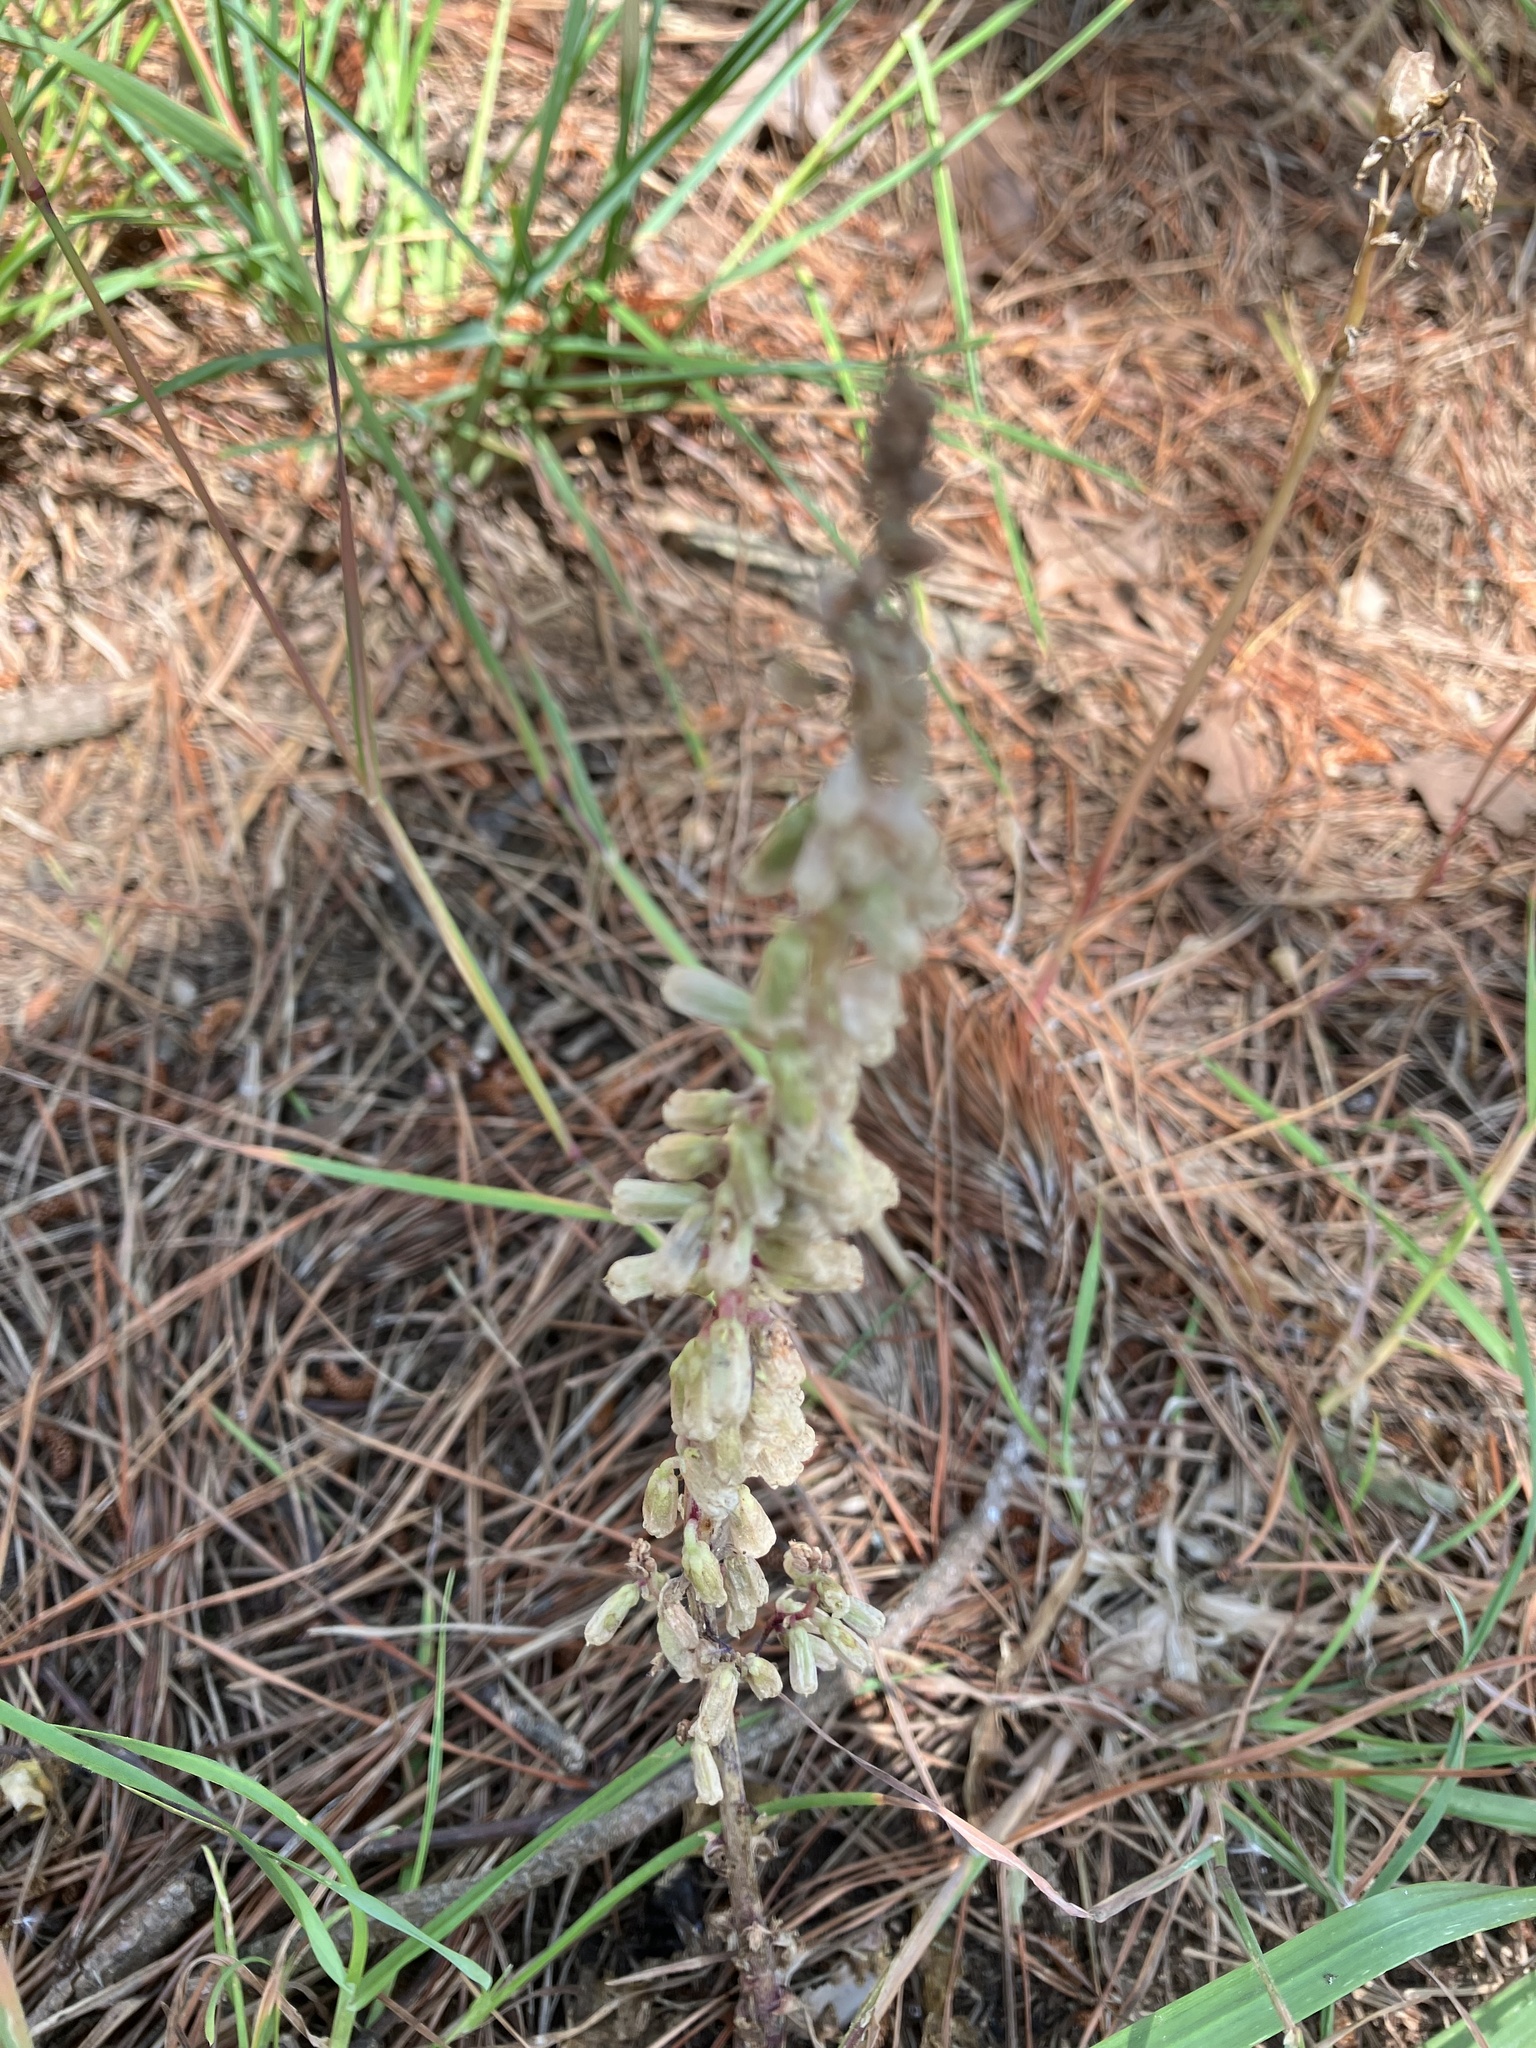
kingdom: Plantae
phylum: Tracheophyta
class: Magnoliopsida
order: Saxifragales
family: Crassulaceae
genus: Umbilicus
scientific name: Umbilicus rupestris
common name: Navelwort
